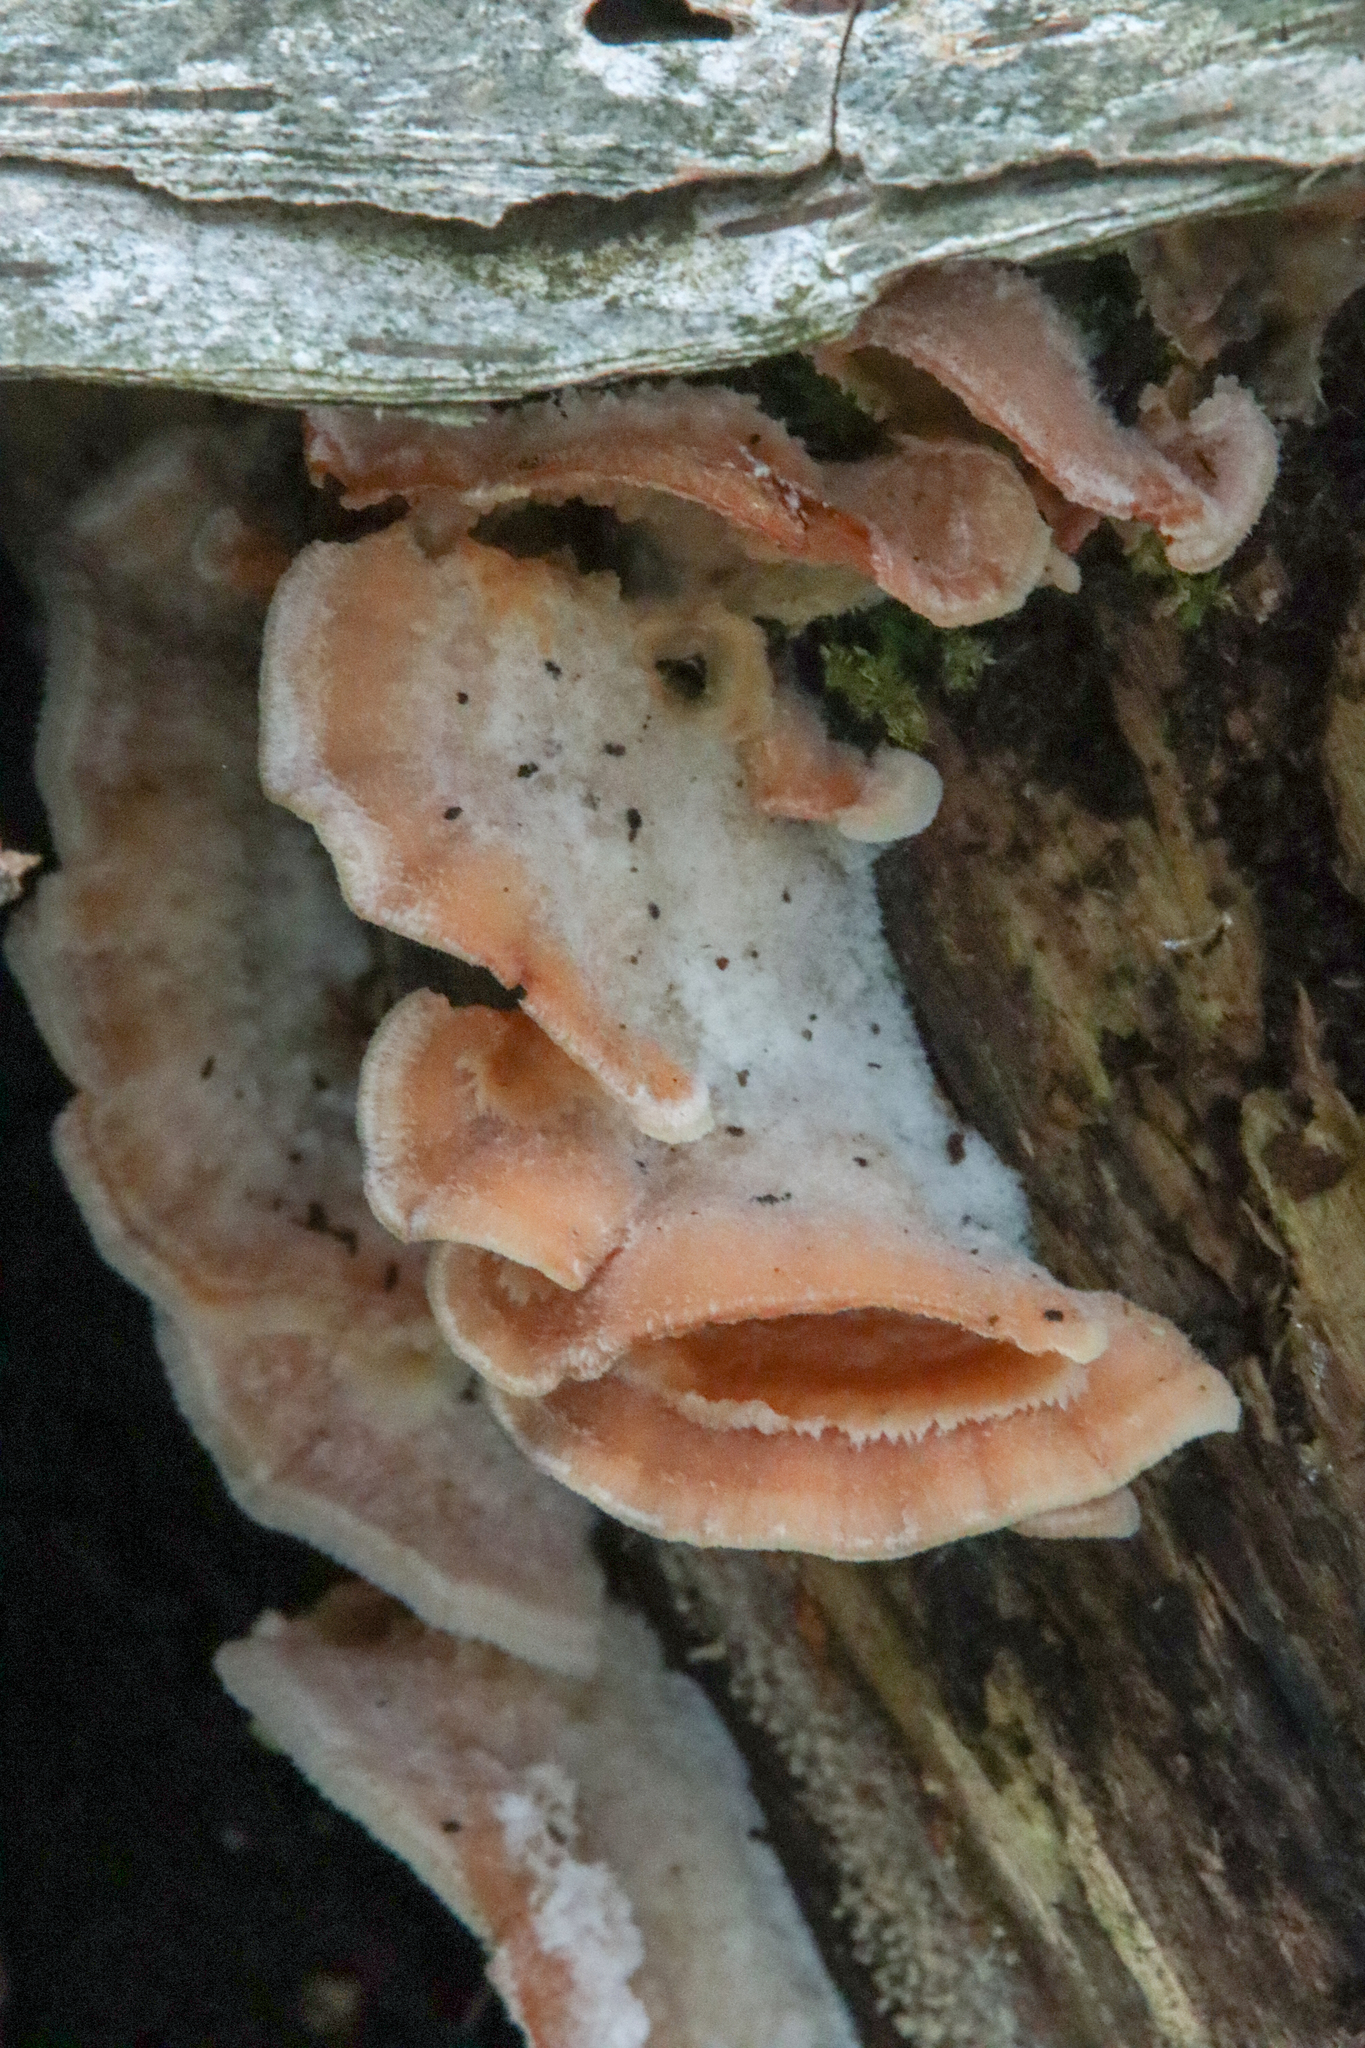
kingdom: Fungi
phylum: Basidiomycota
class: Agaricomycetes
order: Polyporales
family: Meruliaceae
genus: Phlebia
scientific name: Phlebia tremellosa
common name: Jelly rot
